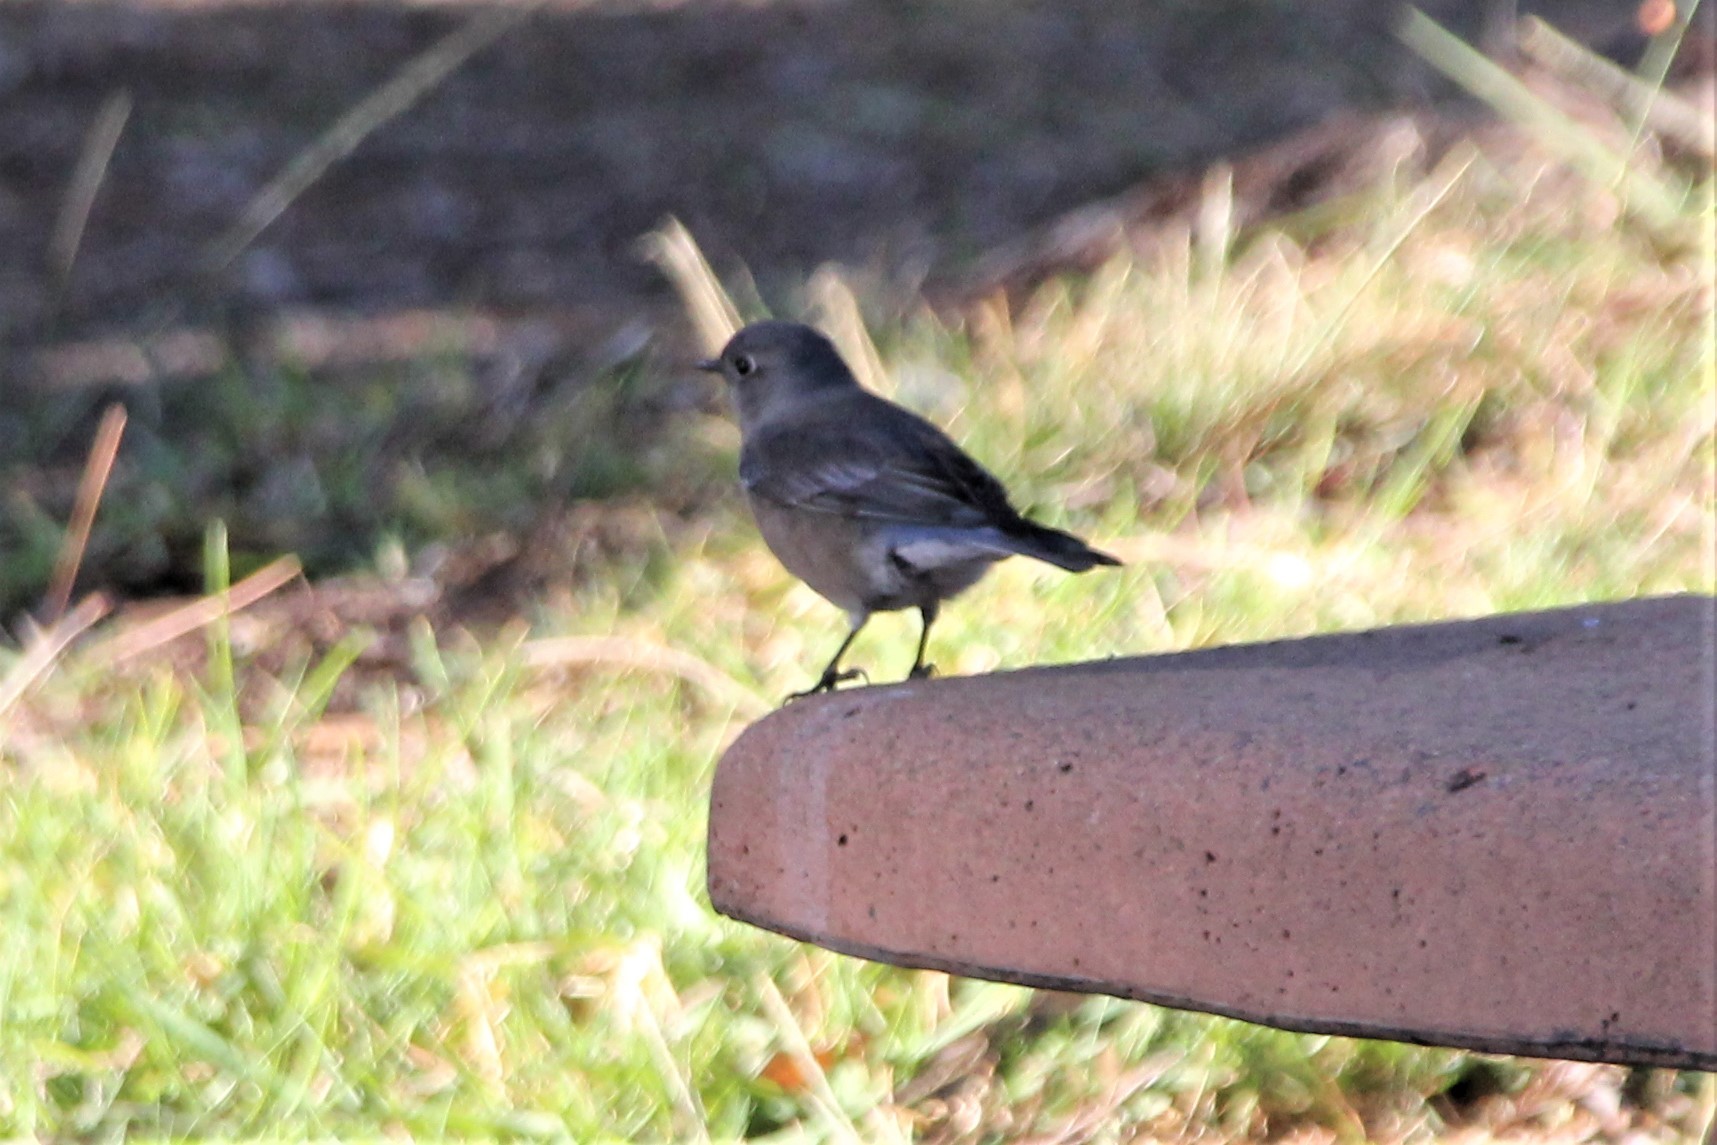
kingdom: Animalia
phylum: Chordata
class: Aves
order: Passeriformes
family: Turdidae
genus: Sialia
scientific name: Sialia mexicana
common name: Western bluebird
